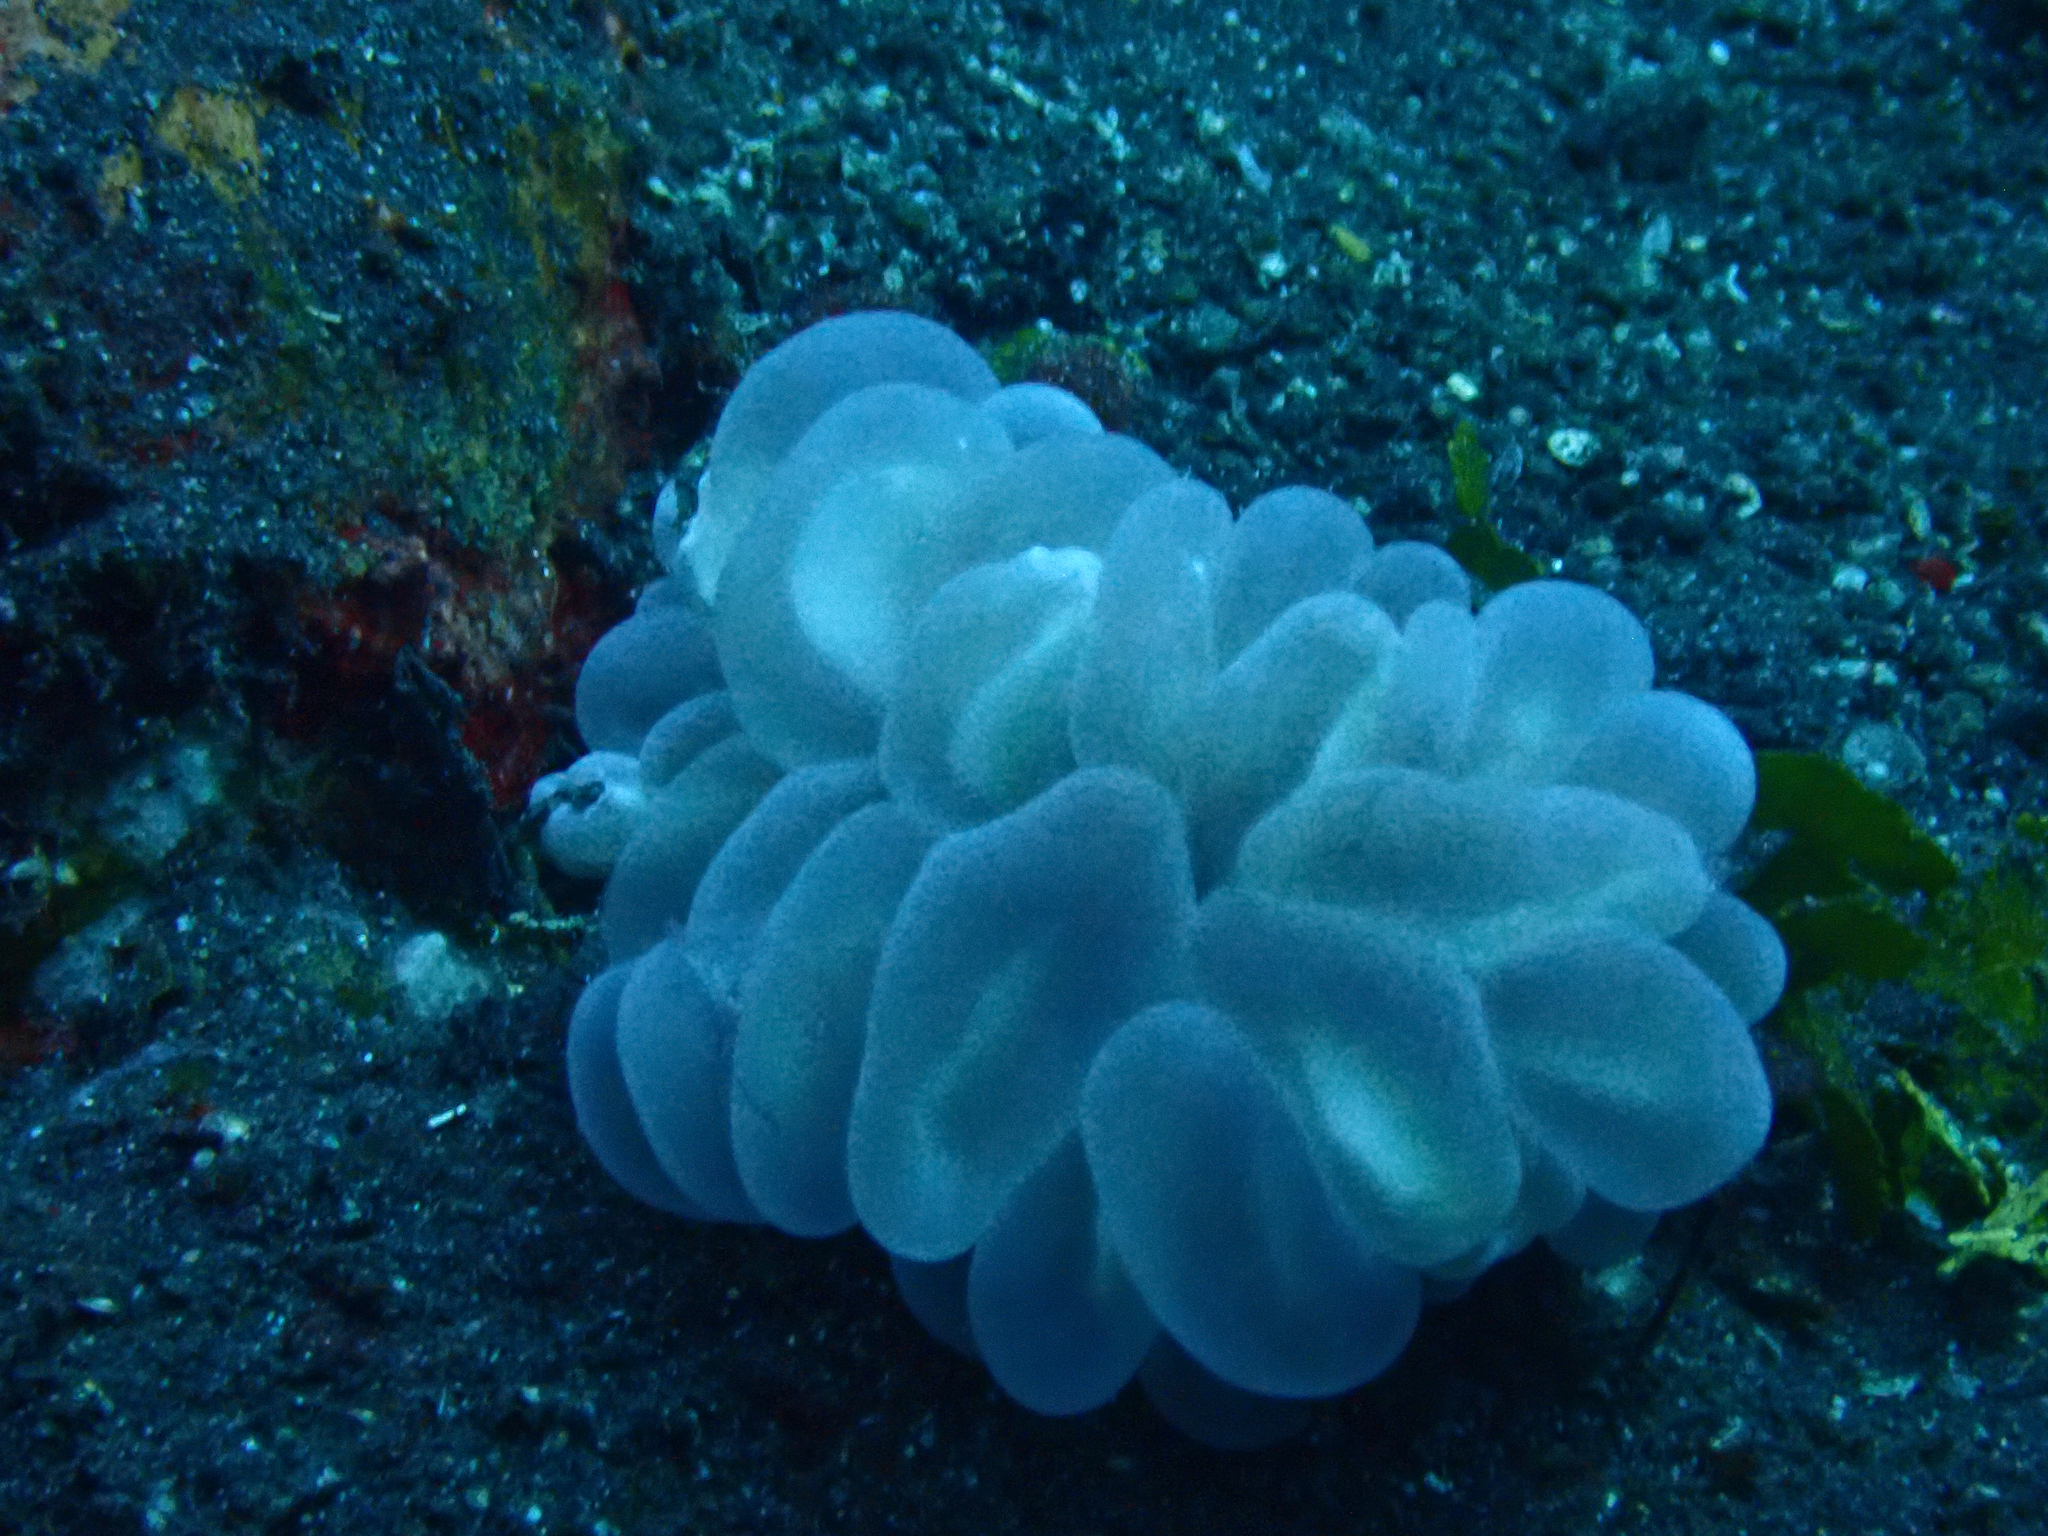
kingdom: Animalia
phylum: Cnidaria
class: Anthozoa
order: Scleractinia
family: Plerogyridae
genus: Plerogyra
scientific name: Plerogyra sinuosa
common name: Bubble coral
